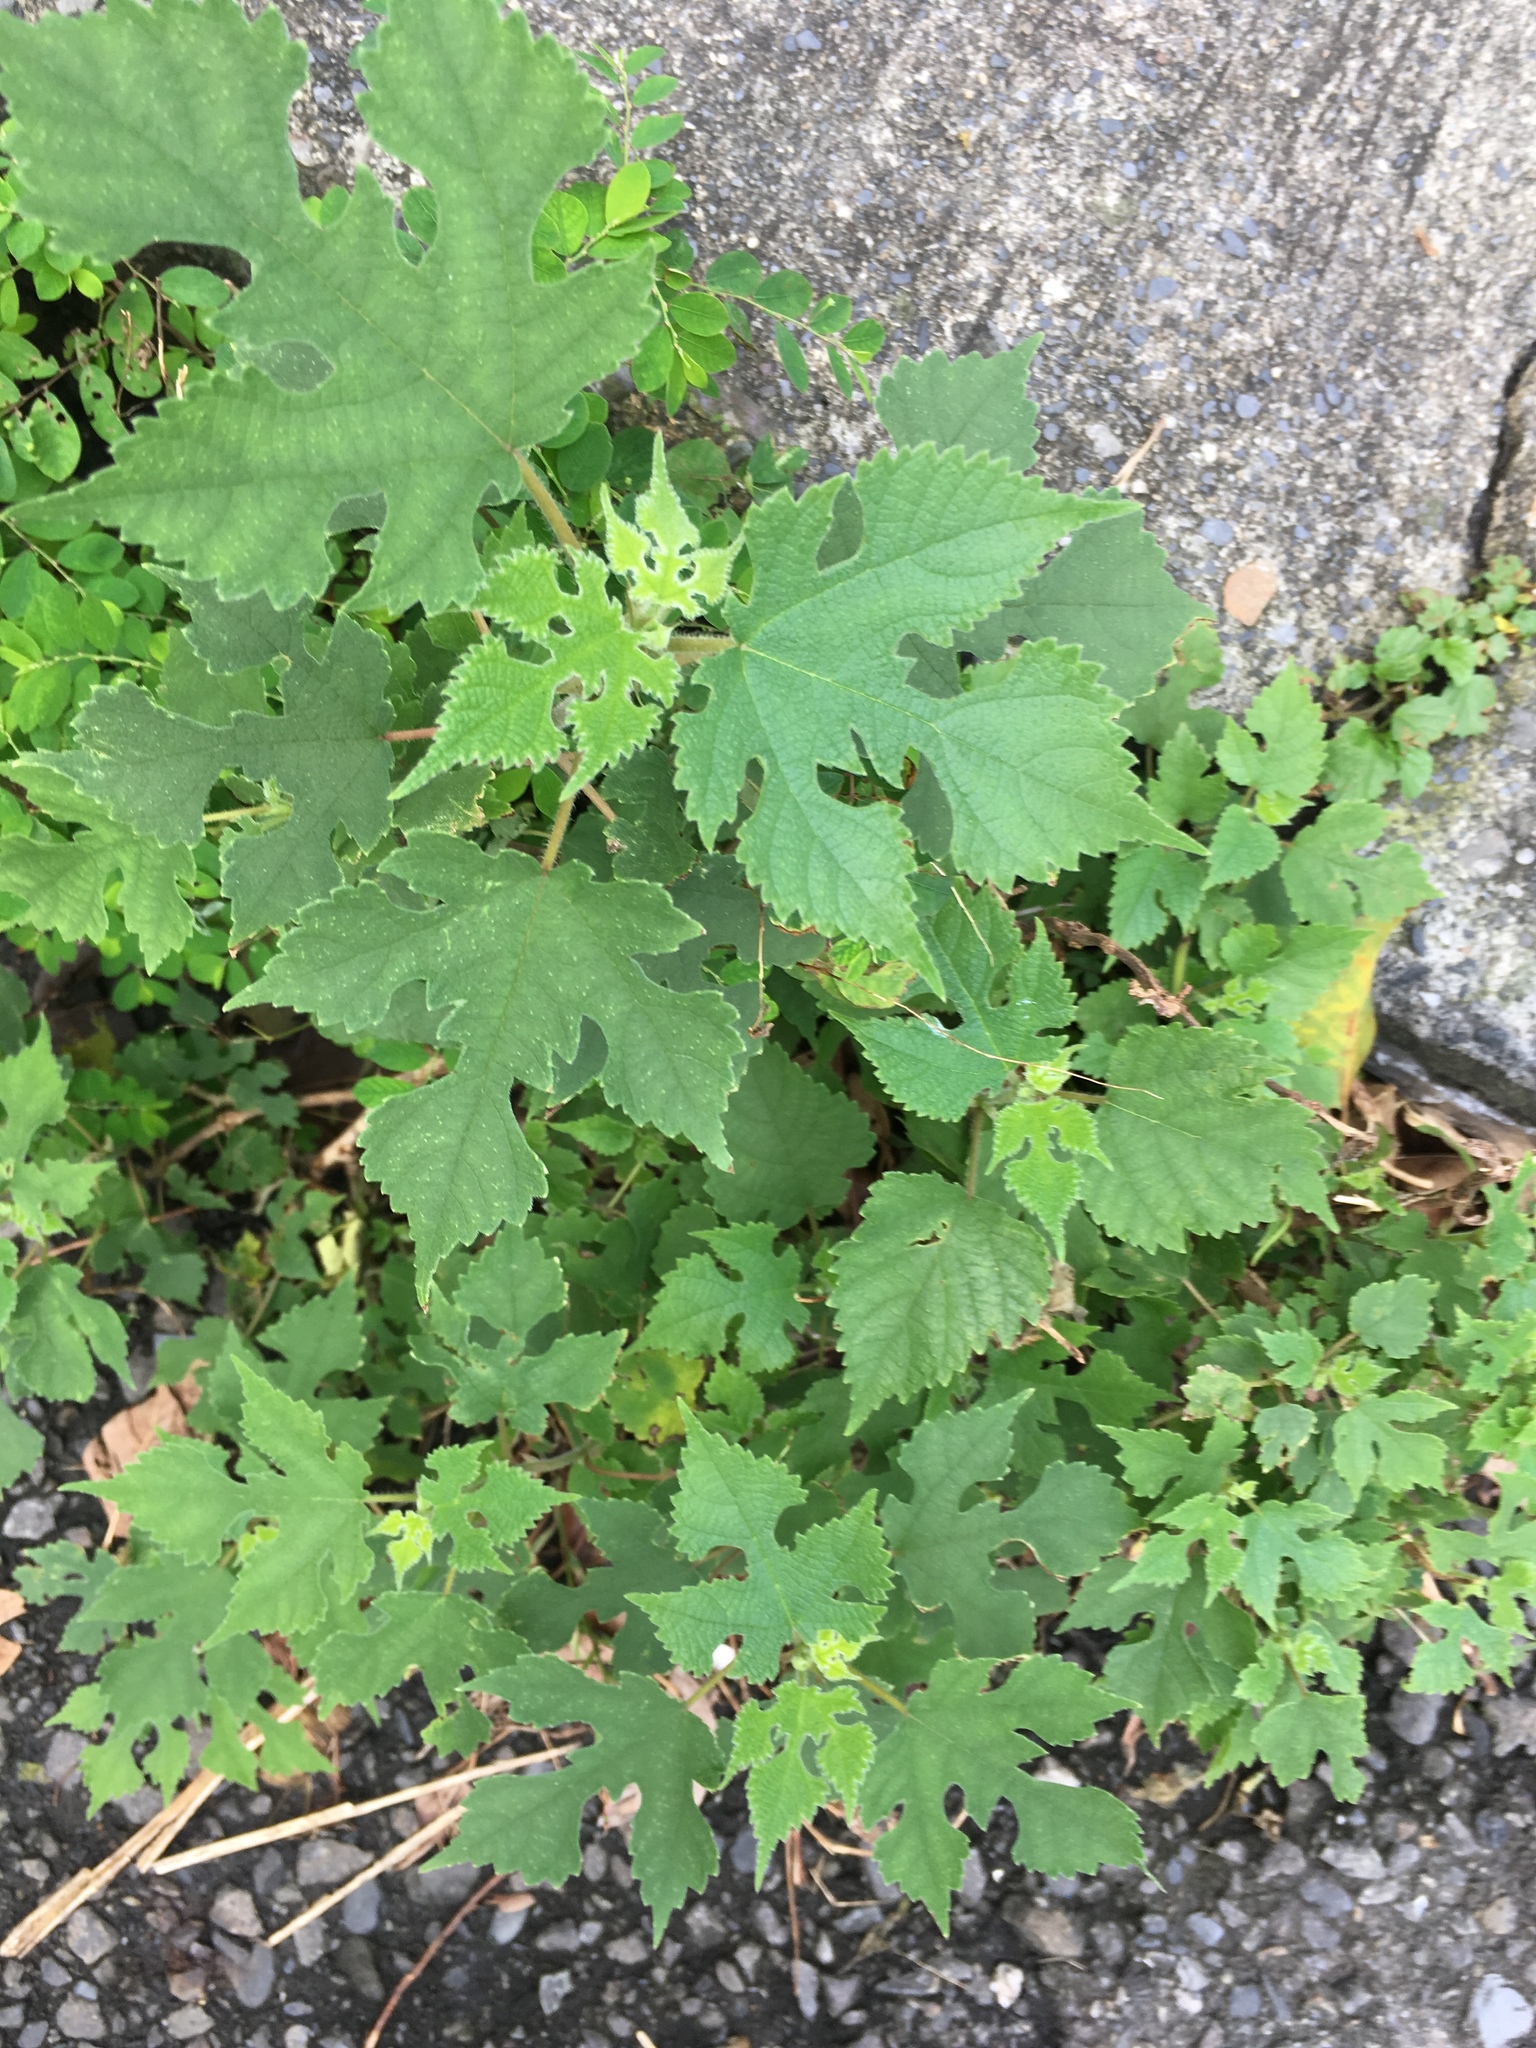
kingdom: Plantae
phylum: Tracheophyta
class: Magnoliopsida
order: Rosales
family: Moraceae
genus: Broussonetia
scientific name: Broussonetia papyrifera
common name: Paper mulberry
